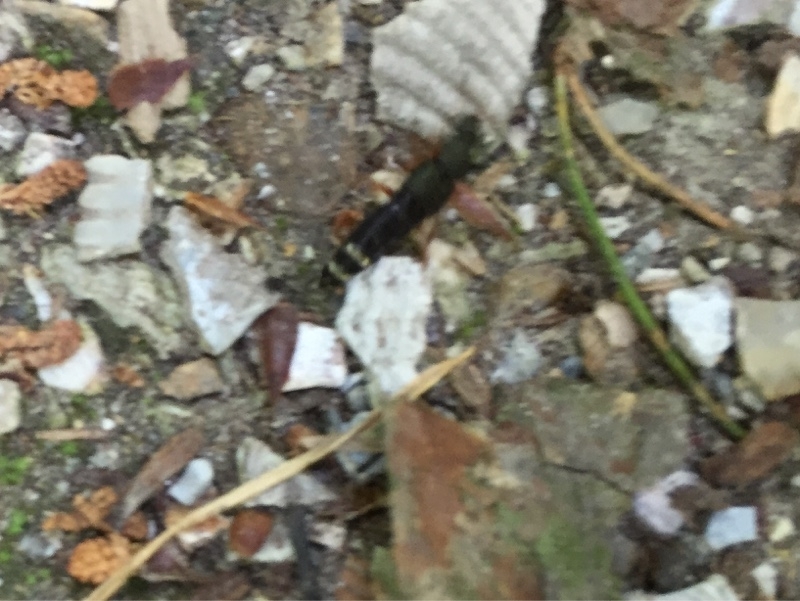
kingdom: Animalia
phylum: Arthropoda
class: Insecta
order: Coleoptera
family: Staphylinidae
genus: Platydracus
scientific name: Platydracus fulvipes
